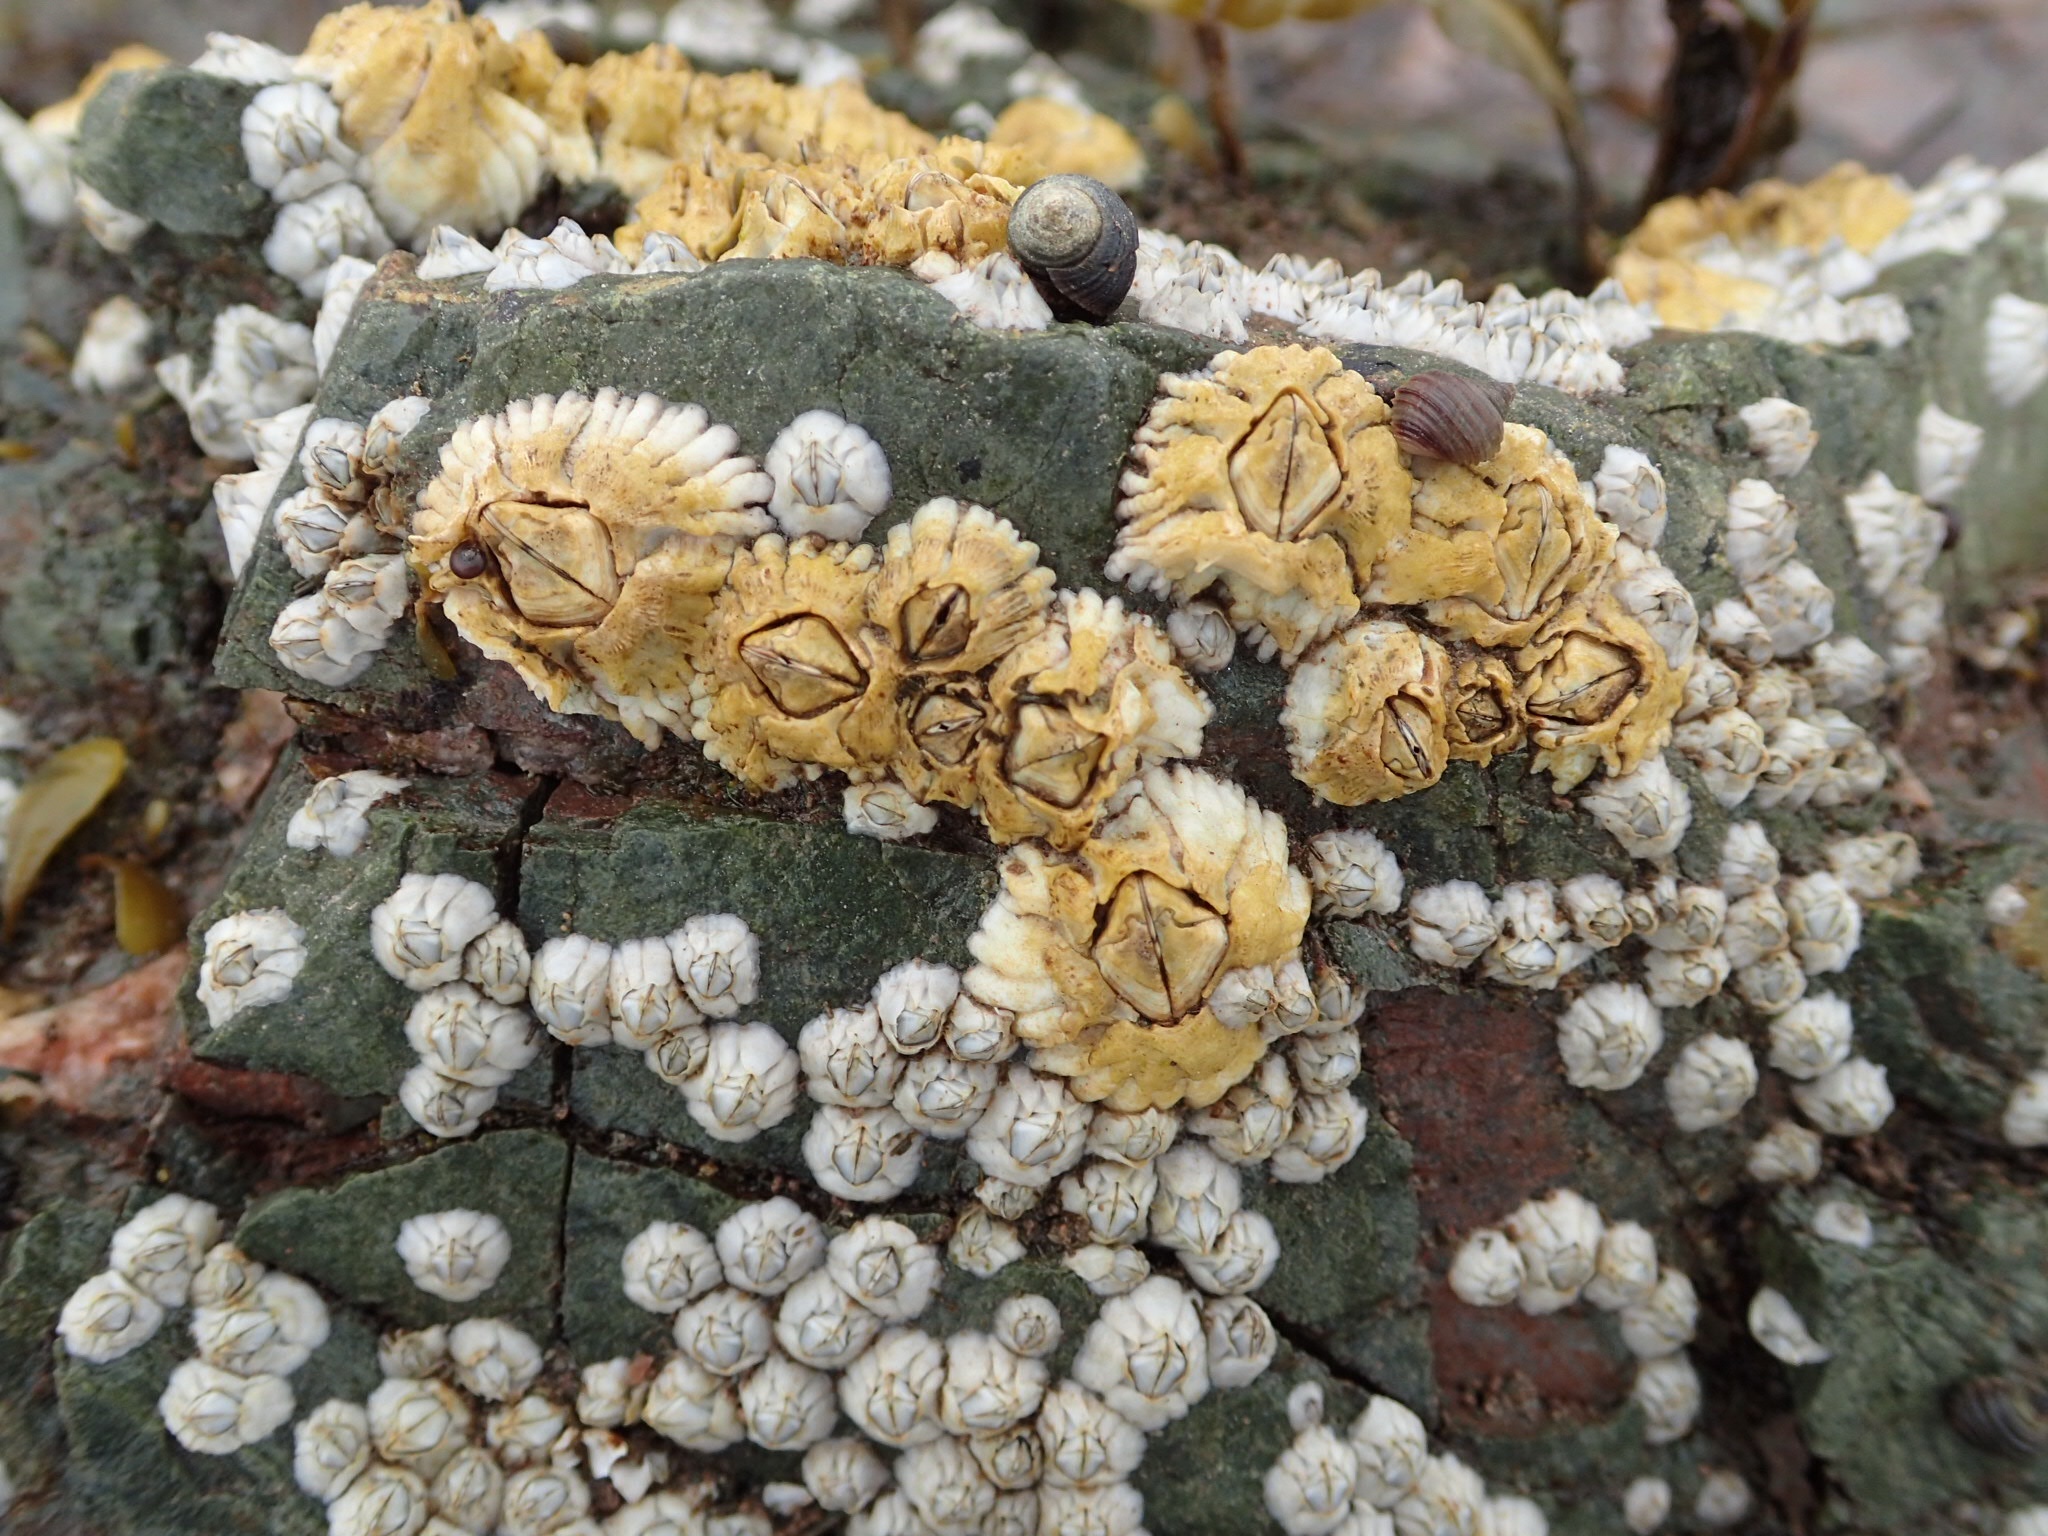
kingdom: Animalia
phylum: Arthropoda
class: Maxillopoda
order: Sessilia
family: Archaeobalanidae
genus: Semibalanus
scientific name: Semibalanus balanoides
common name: Acorn barnacle
